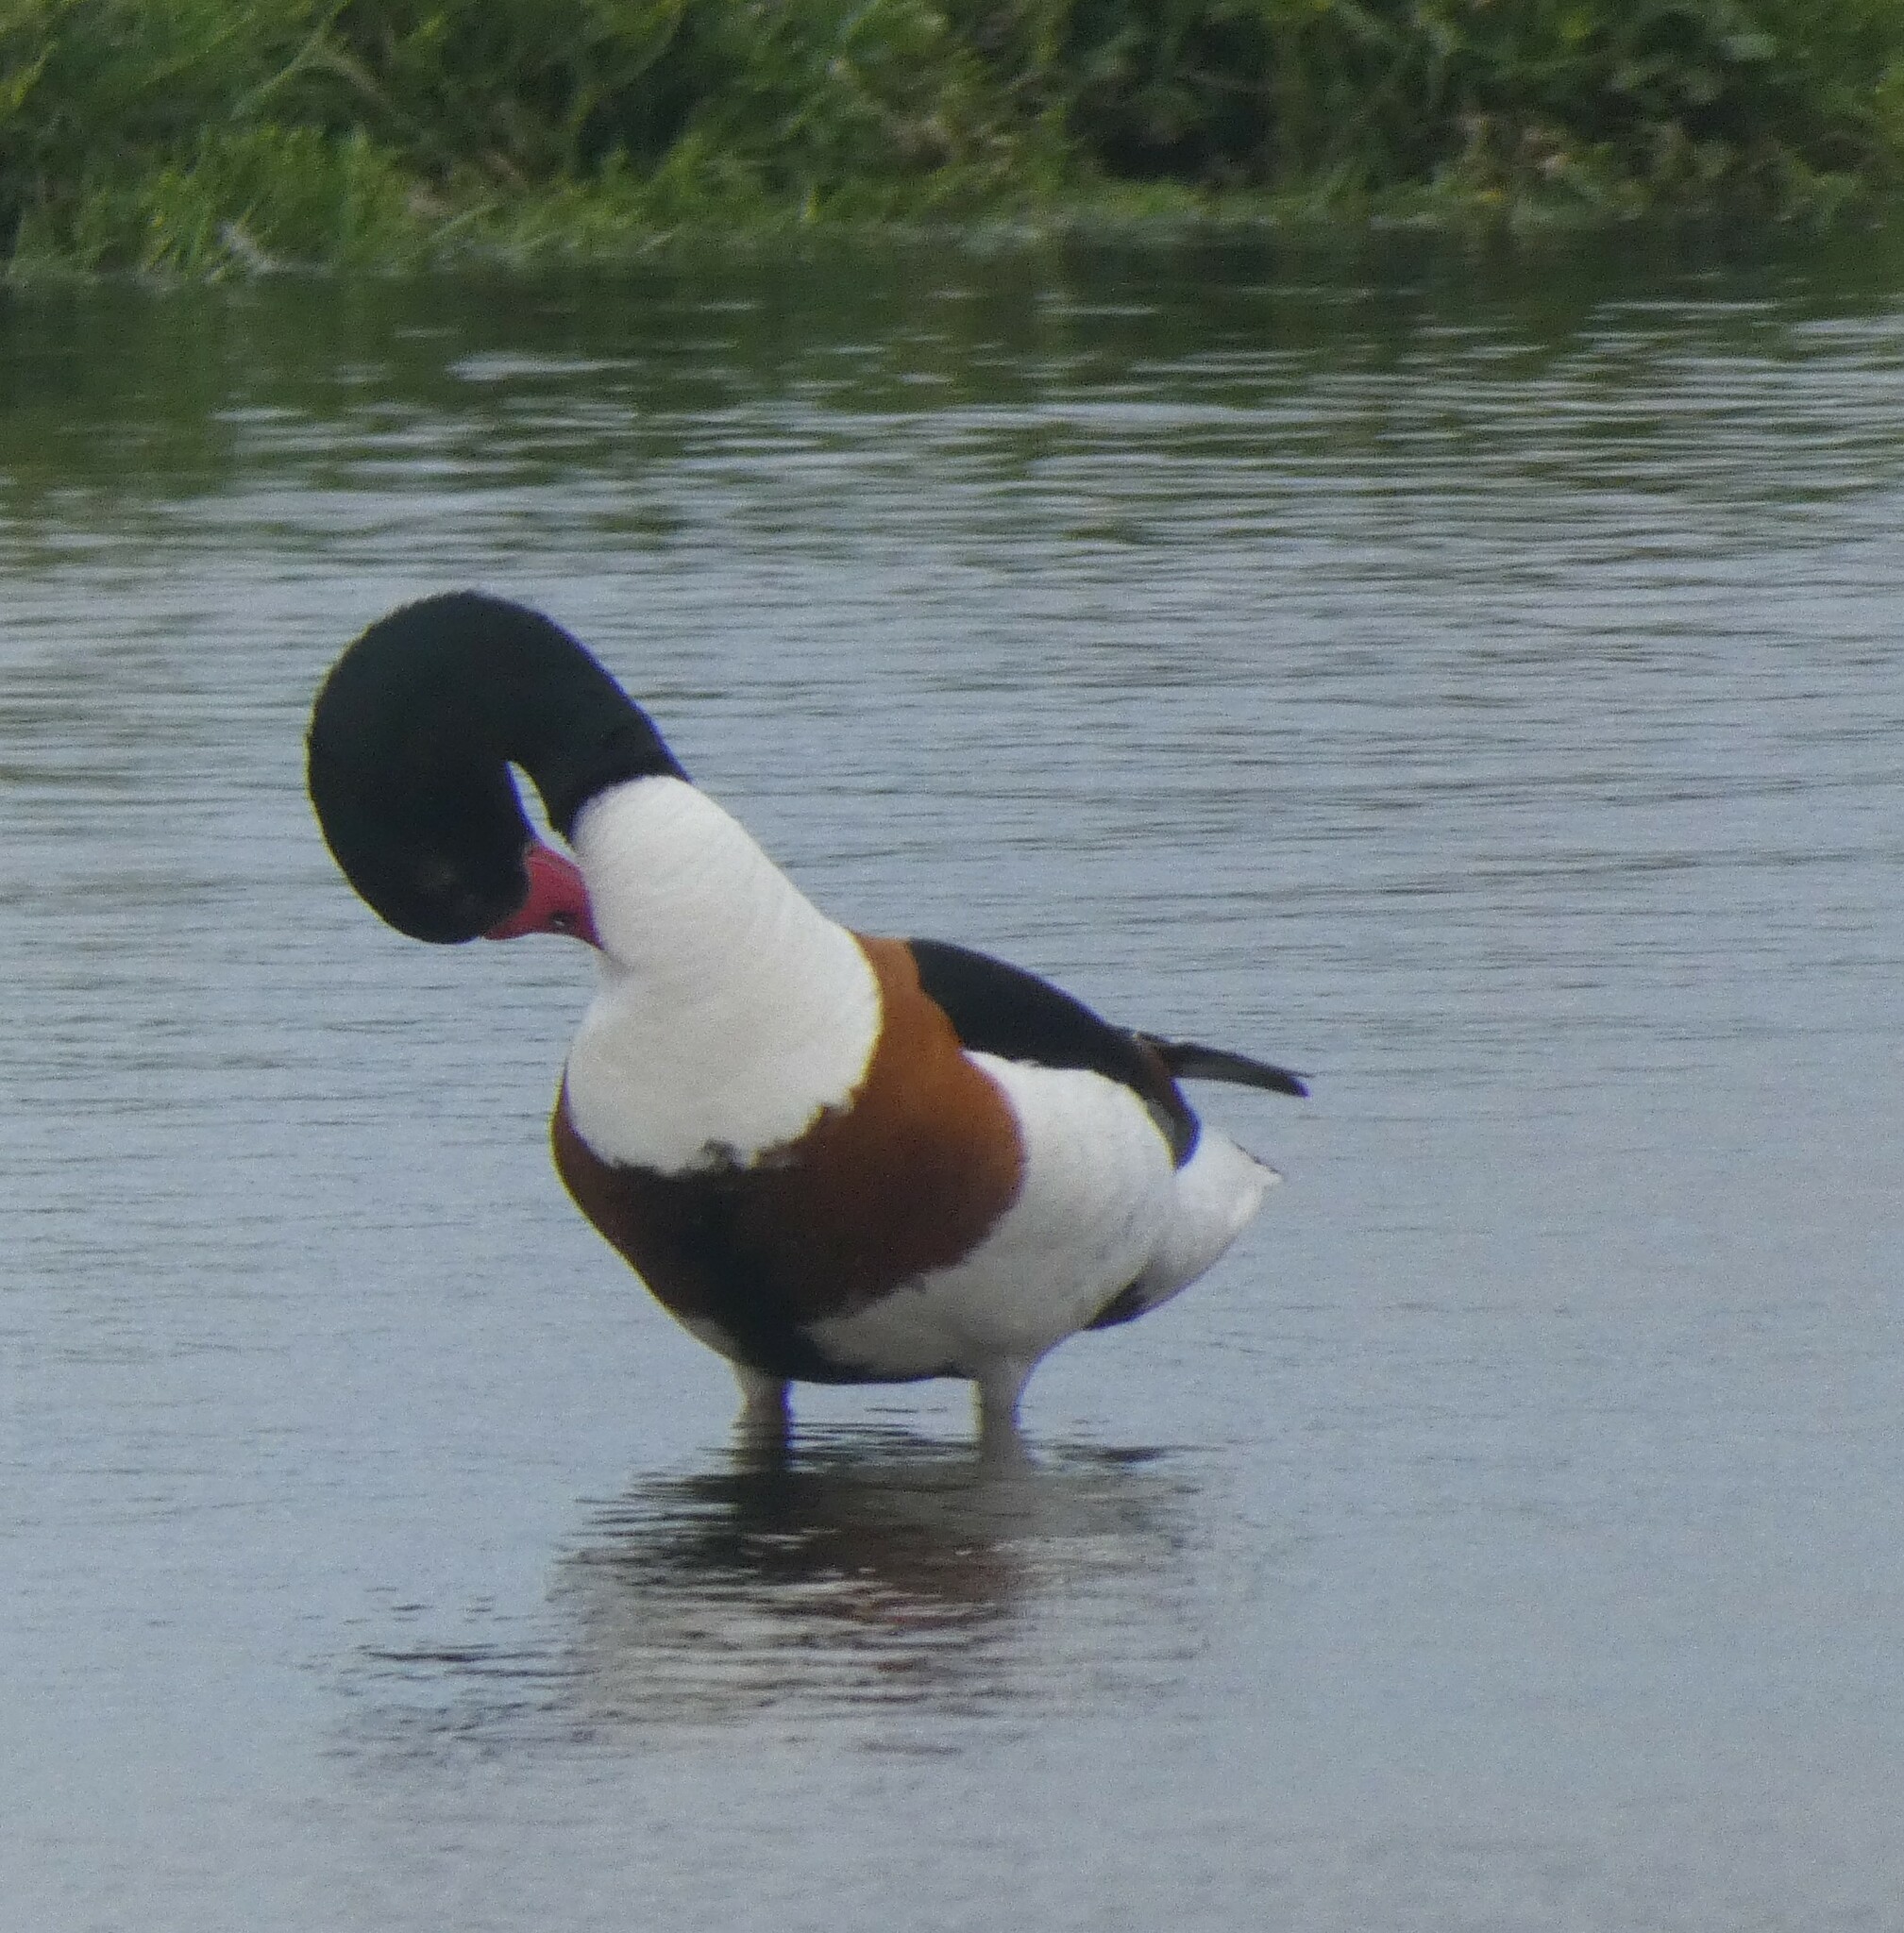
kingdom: Animalia
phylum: Chordata
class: Aves
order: Anseriformes
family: Anatidae
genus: Tadorna
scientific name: Tadorna tadorna
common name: Common shelduck
